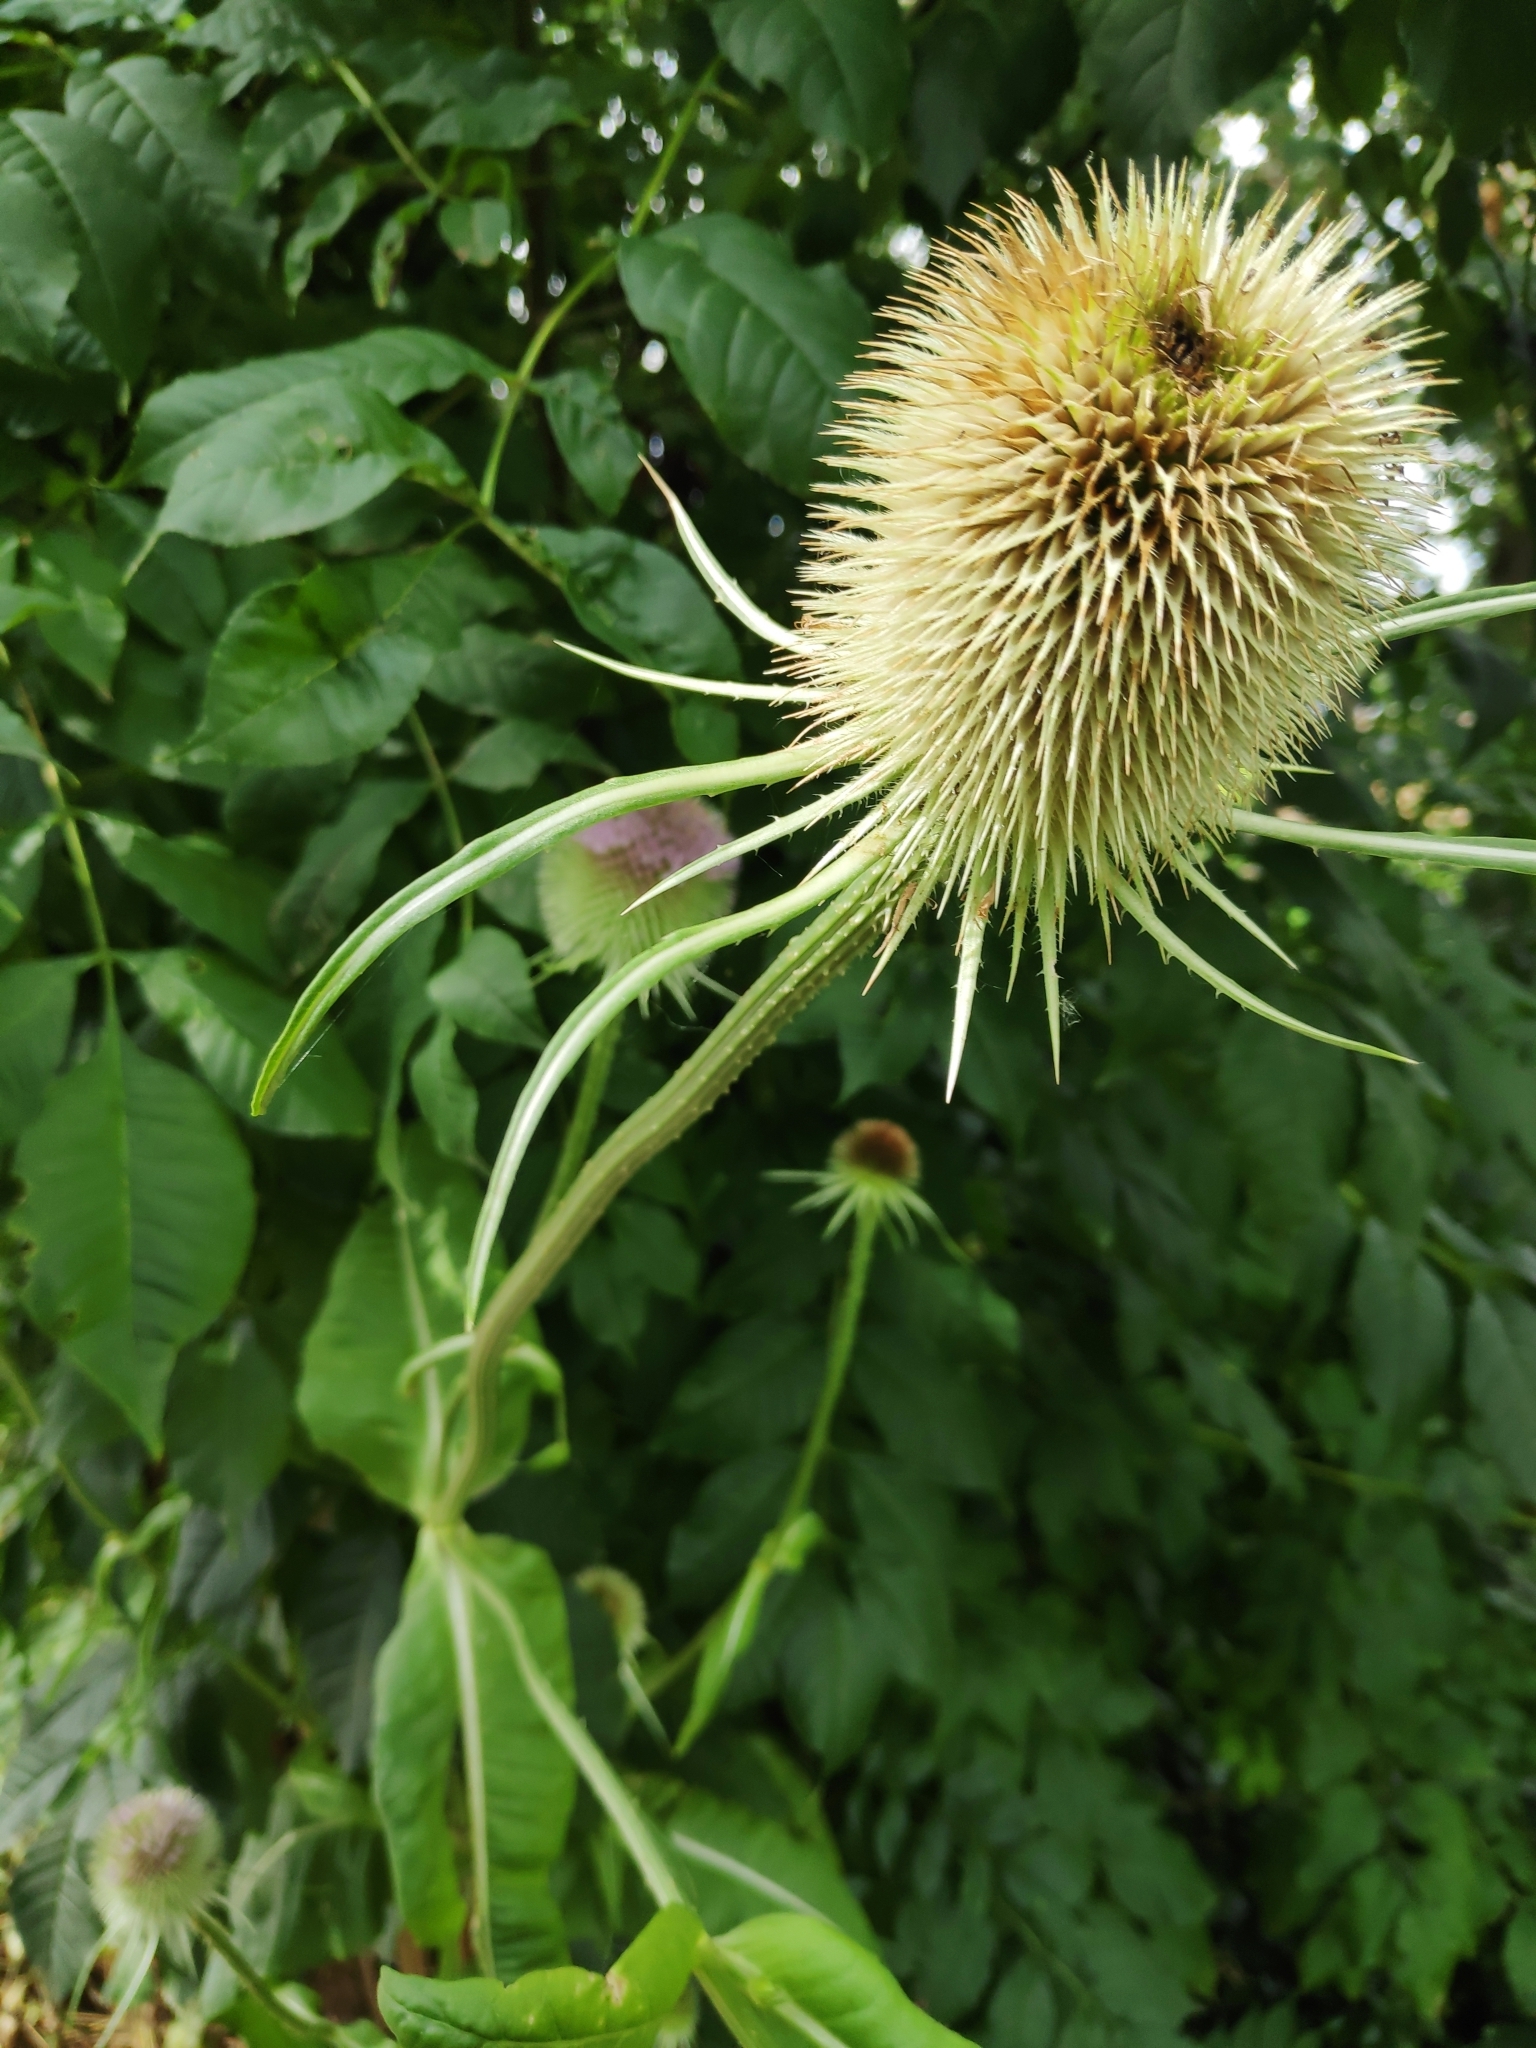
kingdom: Plantae
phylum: Tracheophyta
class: Magnoliopsida
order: Dipsacales
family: Caprifoliaceae
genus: Dipsacus
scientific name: Dipsacus fullonum
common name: Teasel
